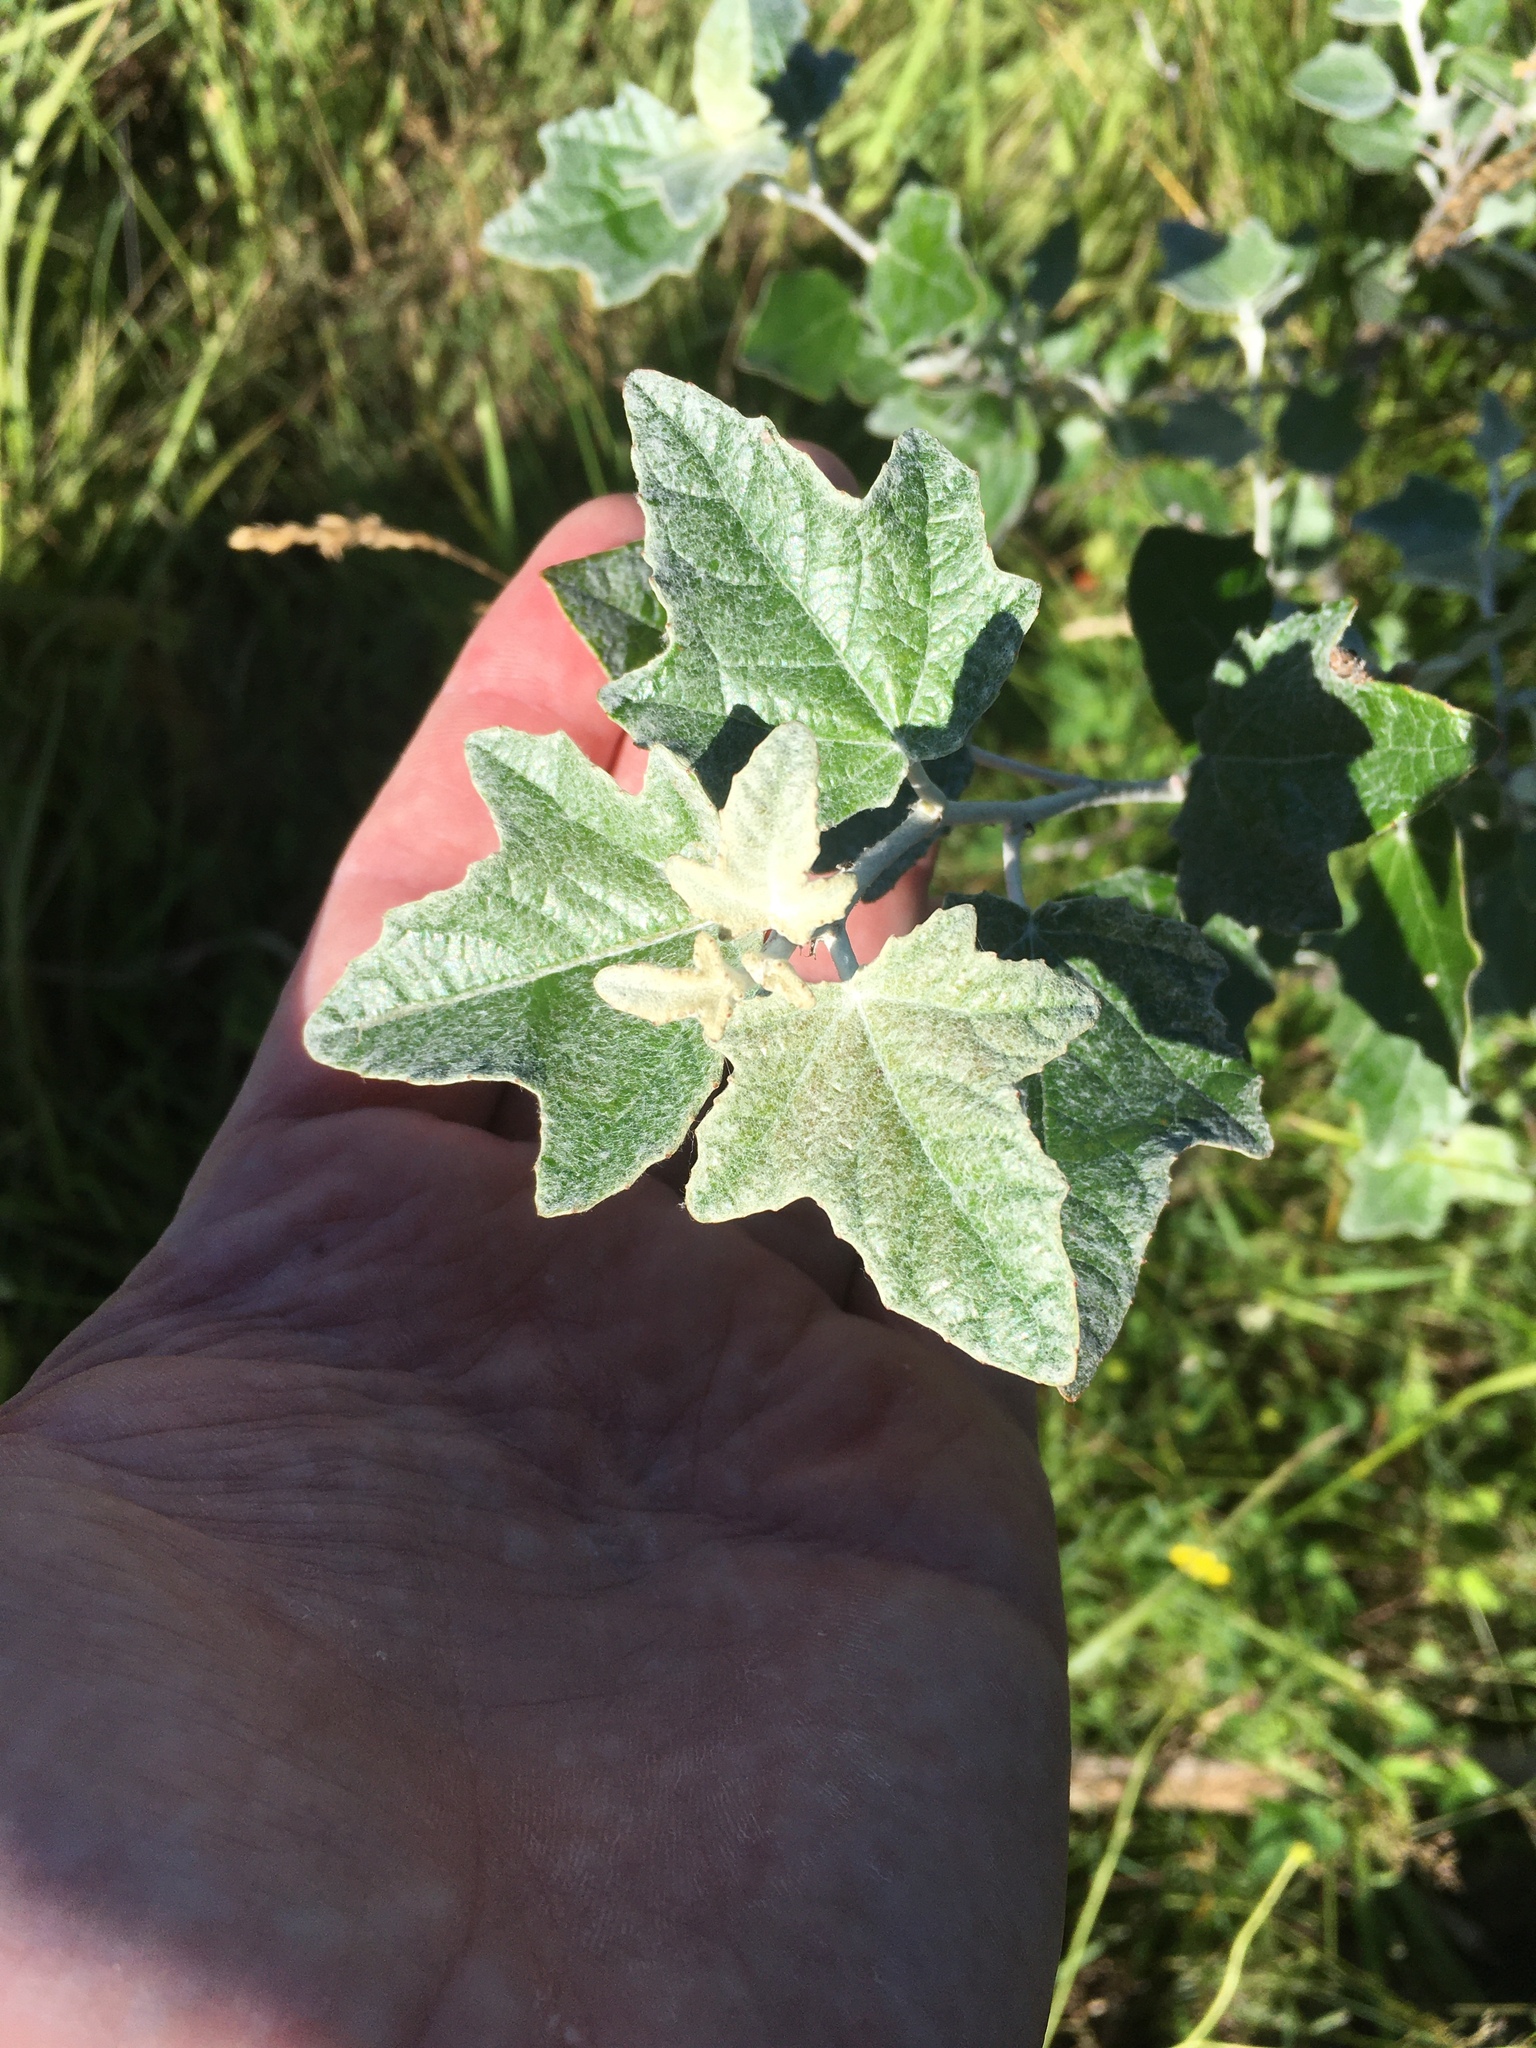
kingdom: Plantae
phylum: Tracheophyta
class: Magnoliopsida
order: Malpighiales
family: Salicaceae
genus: Populus
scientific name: Populus alba
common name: White poplar
